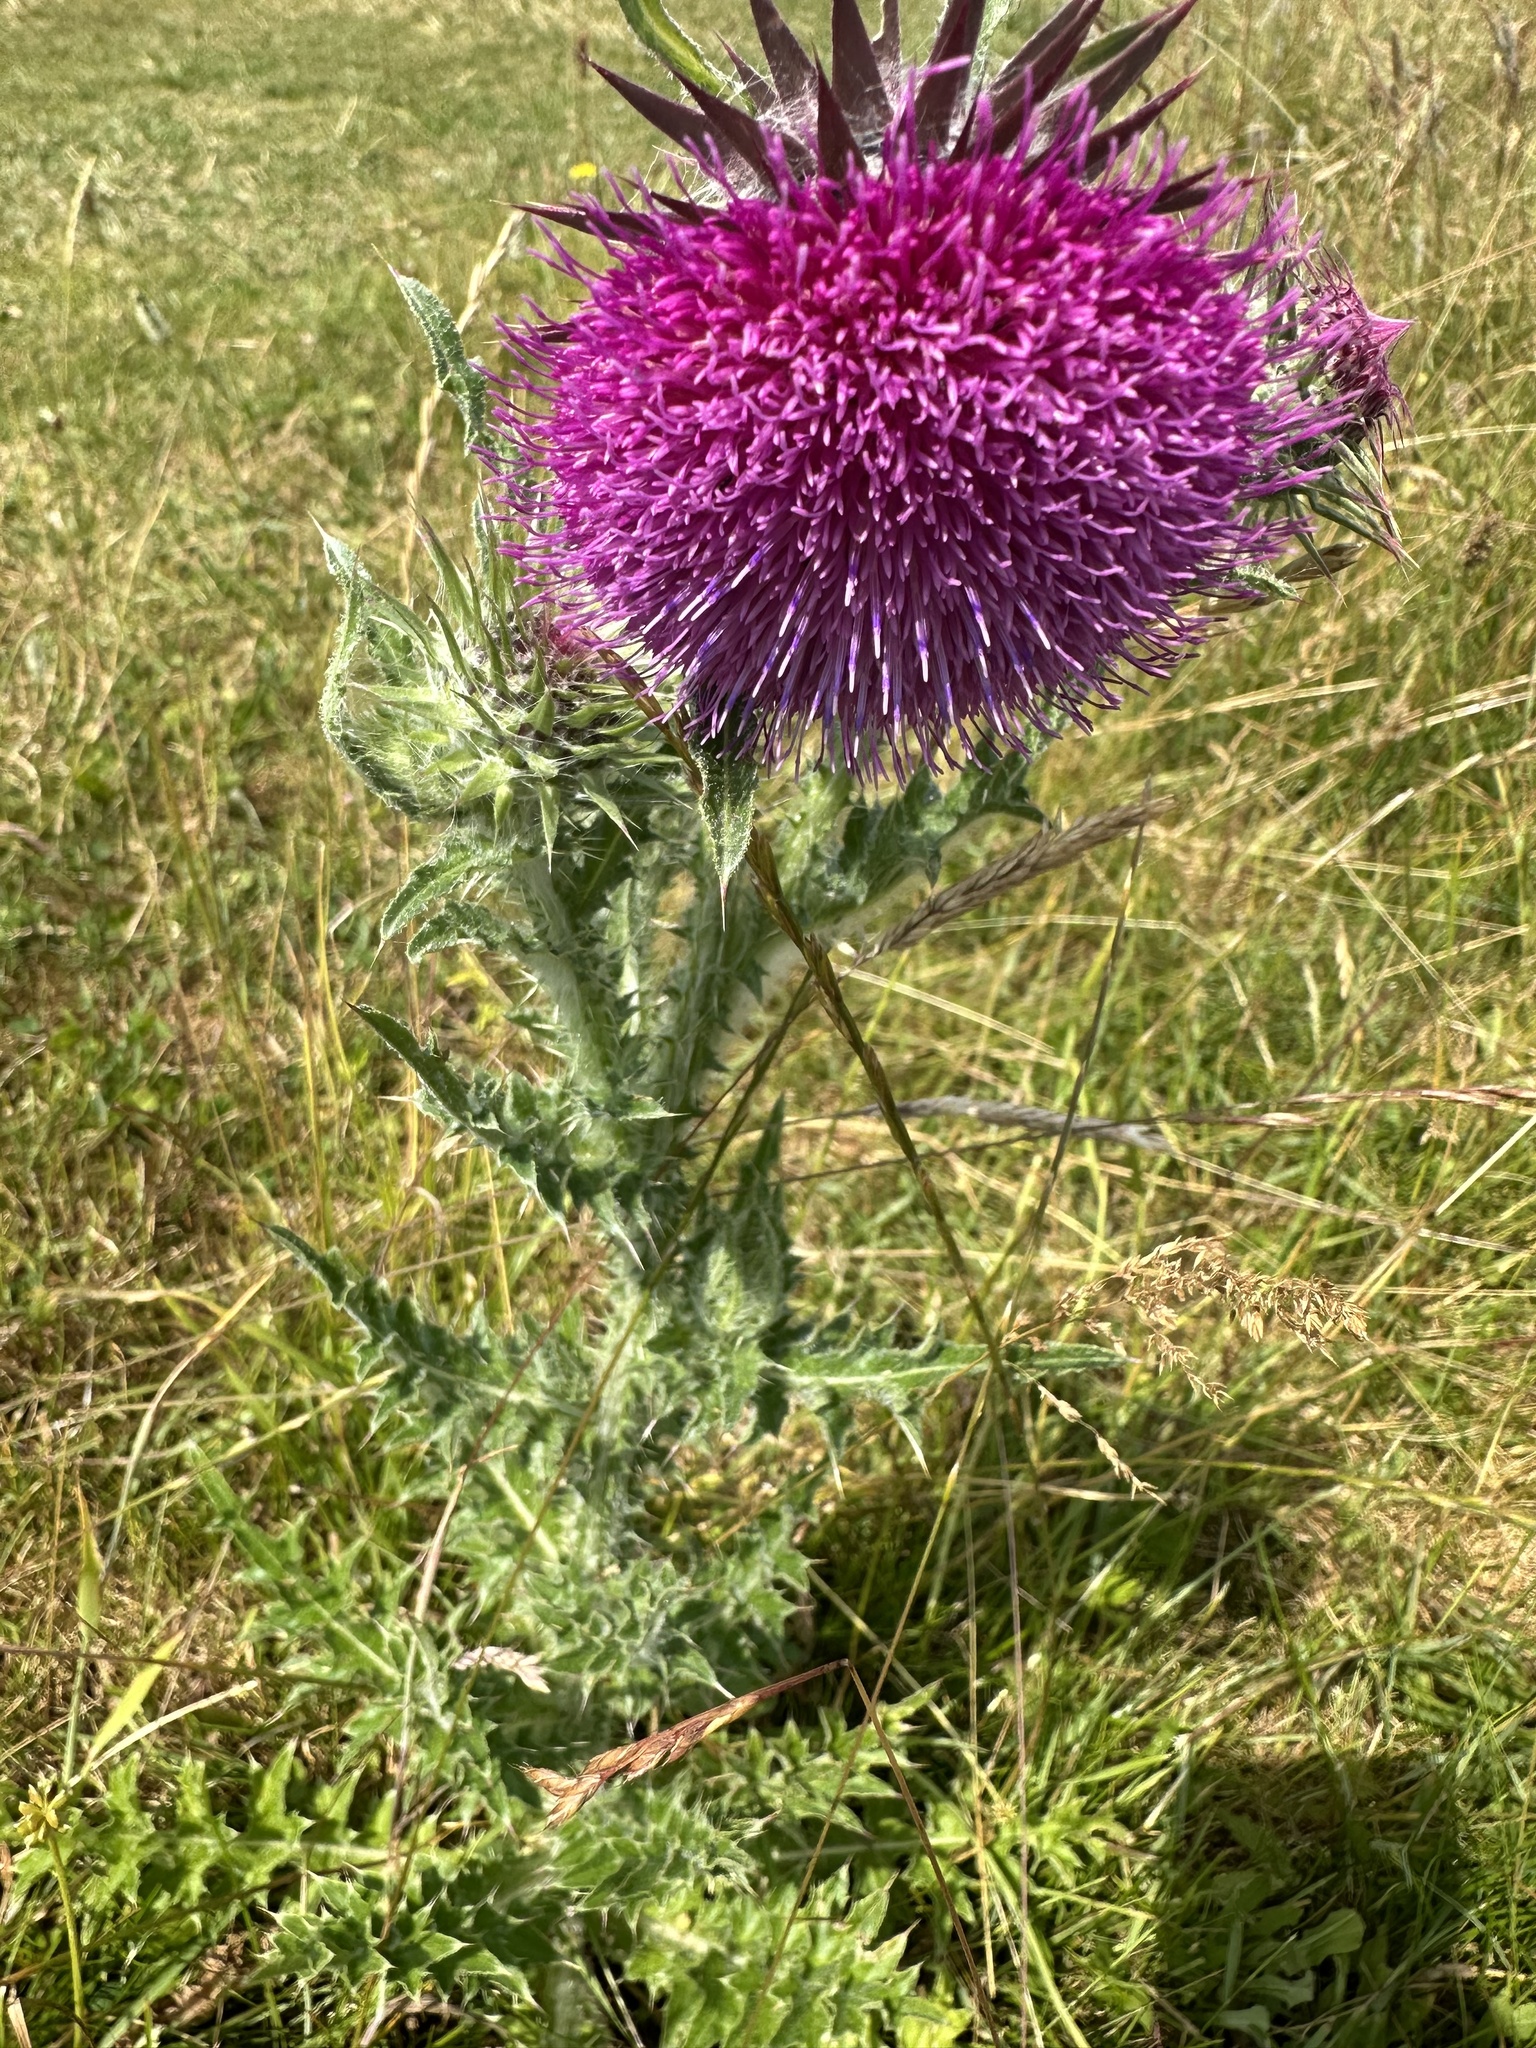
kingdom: Plantae
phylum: Tracheophyta
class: Magnoliopsida
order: Asterales
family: Asteraceae
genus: Carduus
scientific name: Carduus nutans
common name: Musk thistle
